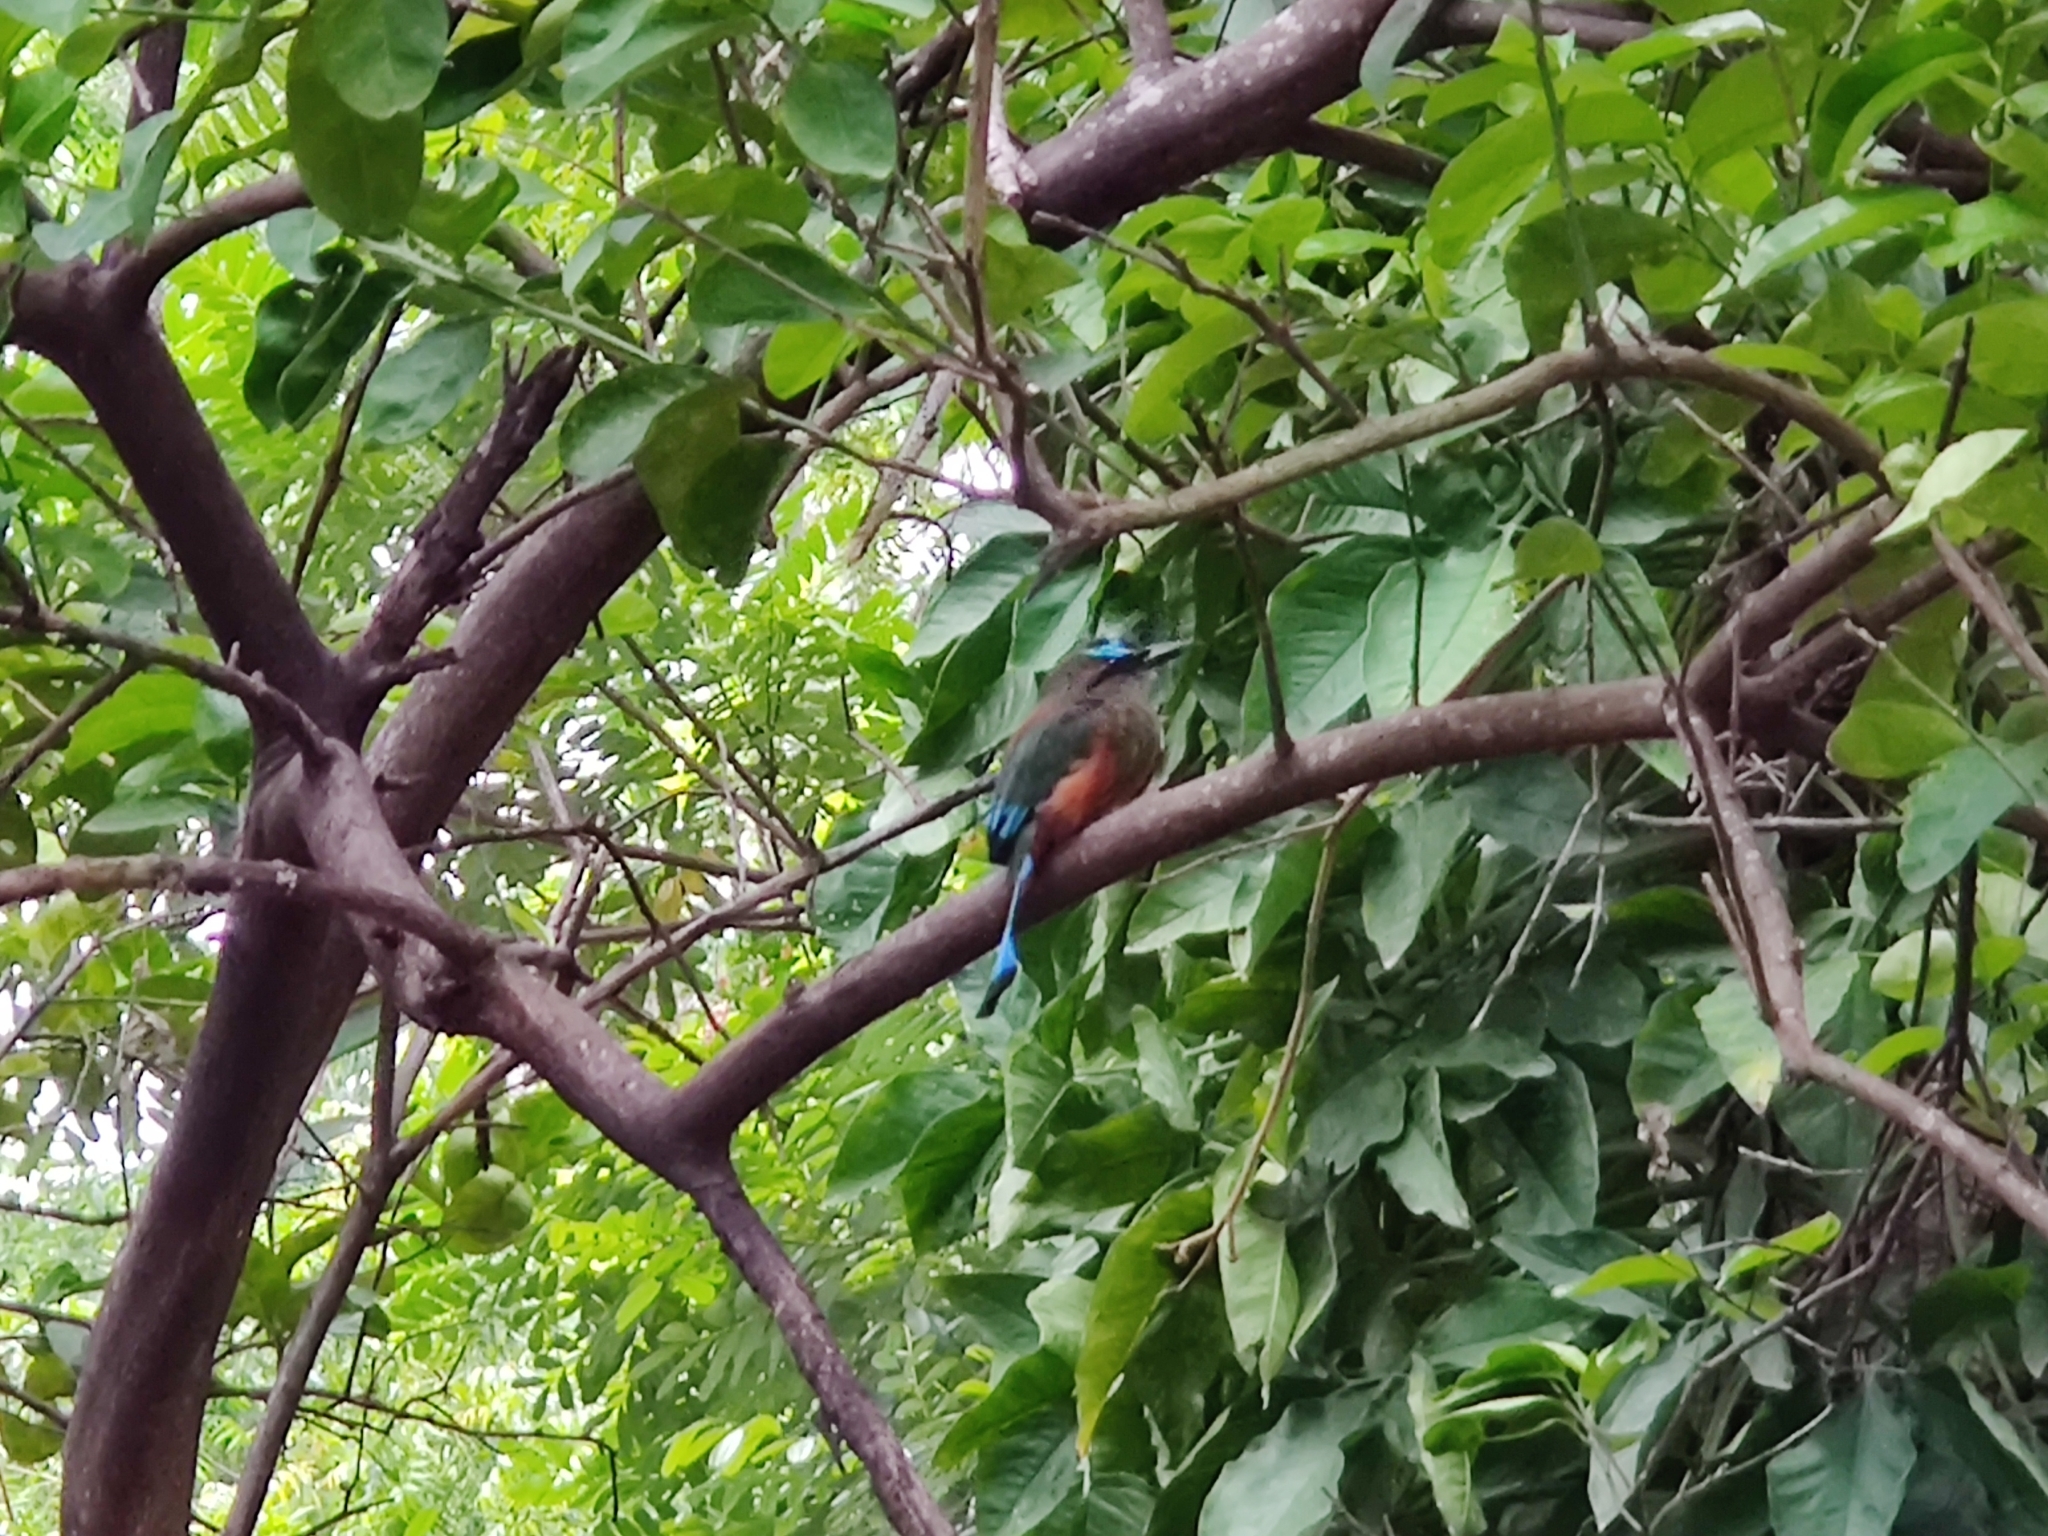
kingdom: Animalia
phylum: Chordata
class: Aves
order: Coraciiformes
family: Momotidae
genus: Eumomota
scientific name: Eumomota superciliosa
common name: Turquoise-browed motmot
